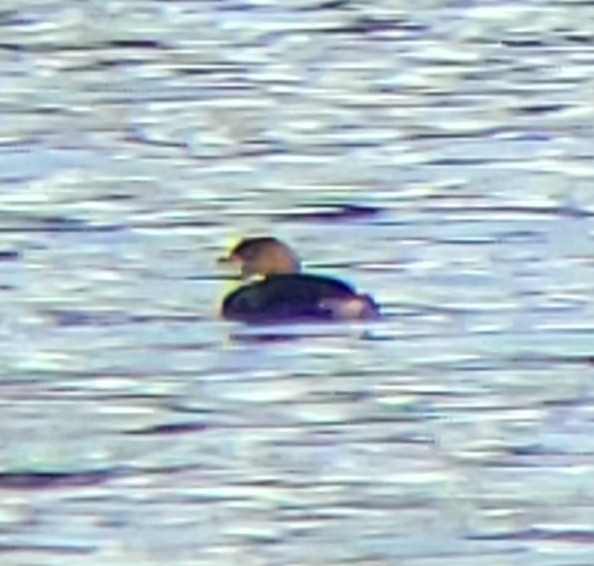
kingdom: Animalia
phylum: Chordata
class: Aves
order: Podicipediformes
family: Podicipedidae
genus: Podilymbus
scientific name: Podilymbus podiceps
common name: Pied-billed grebe
